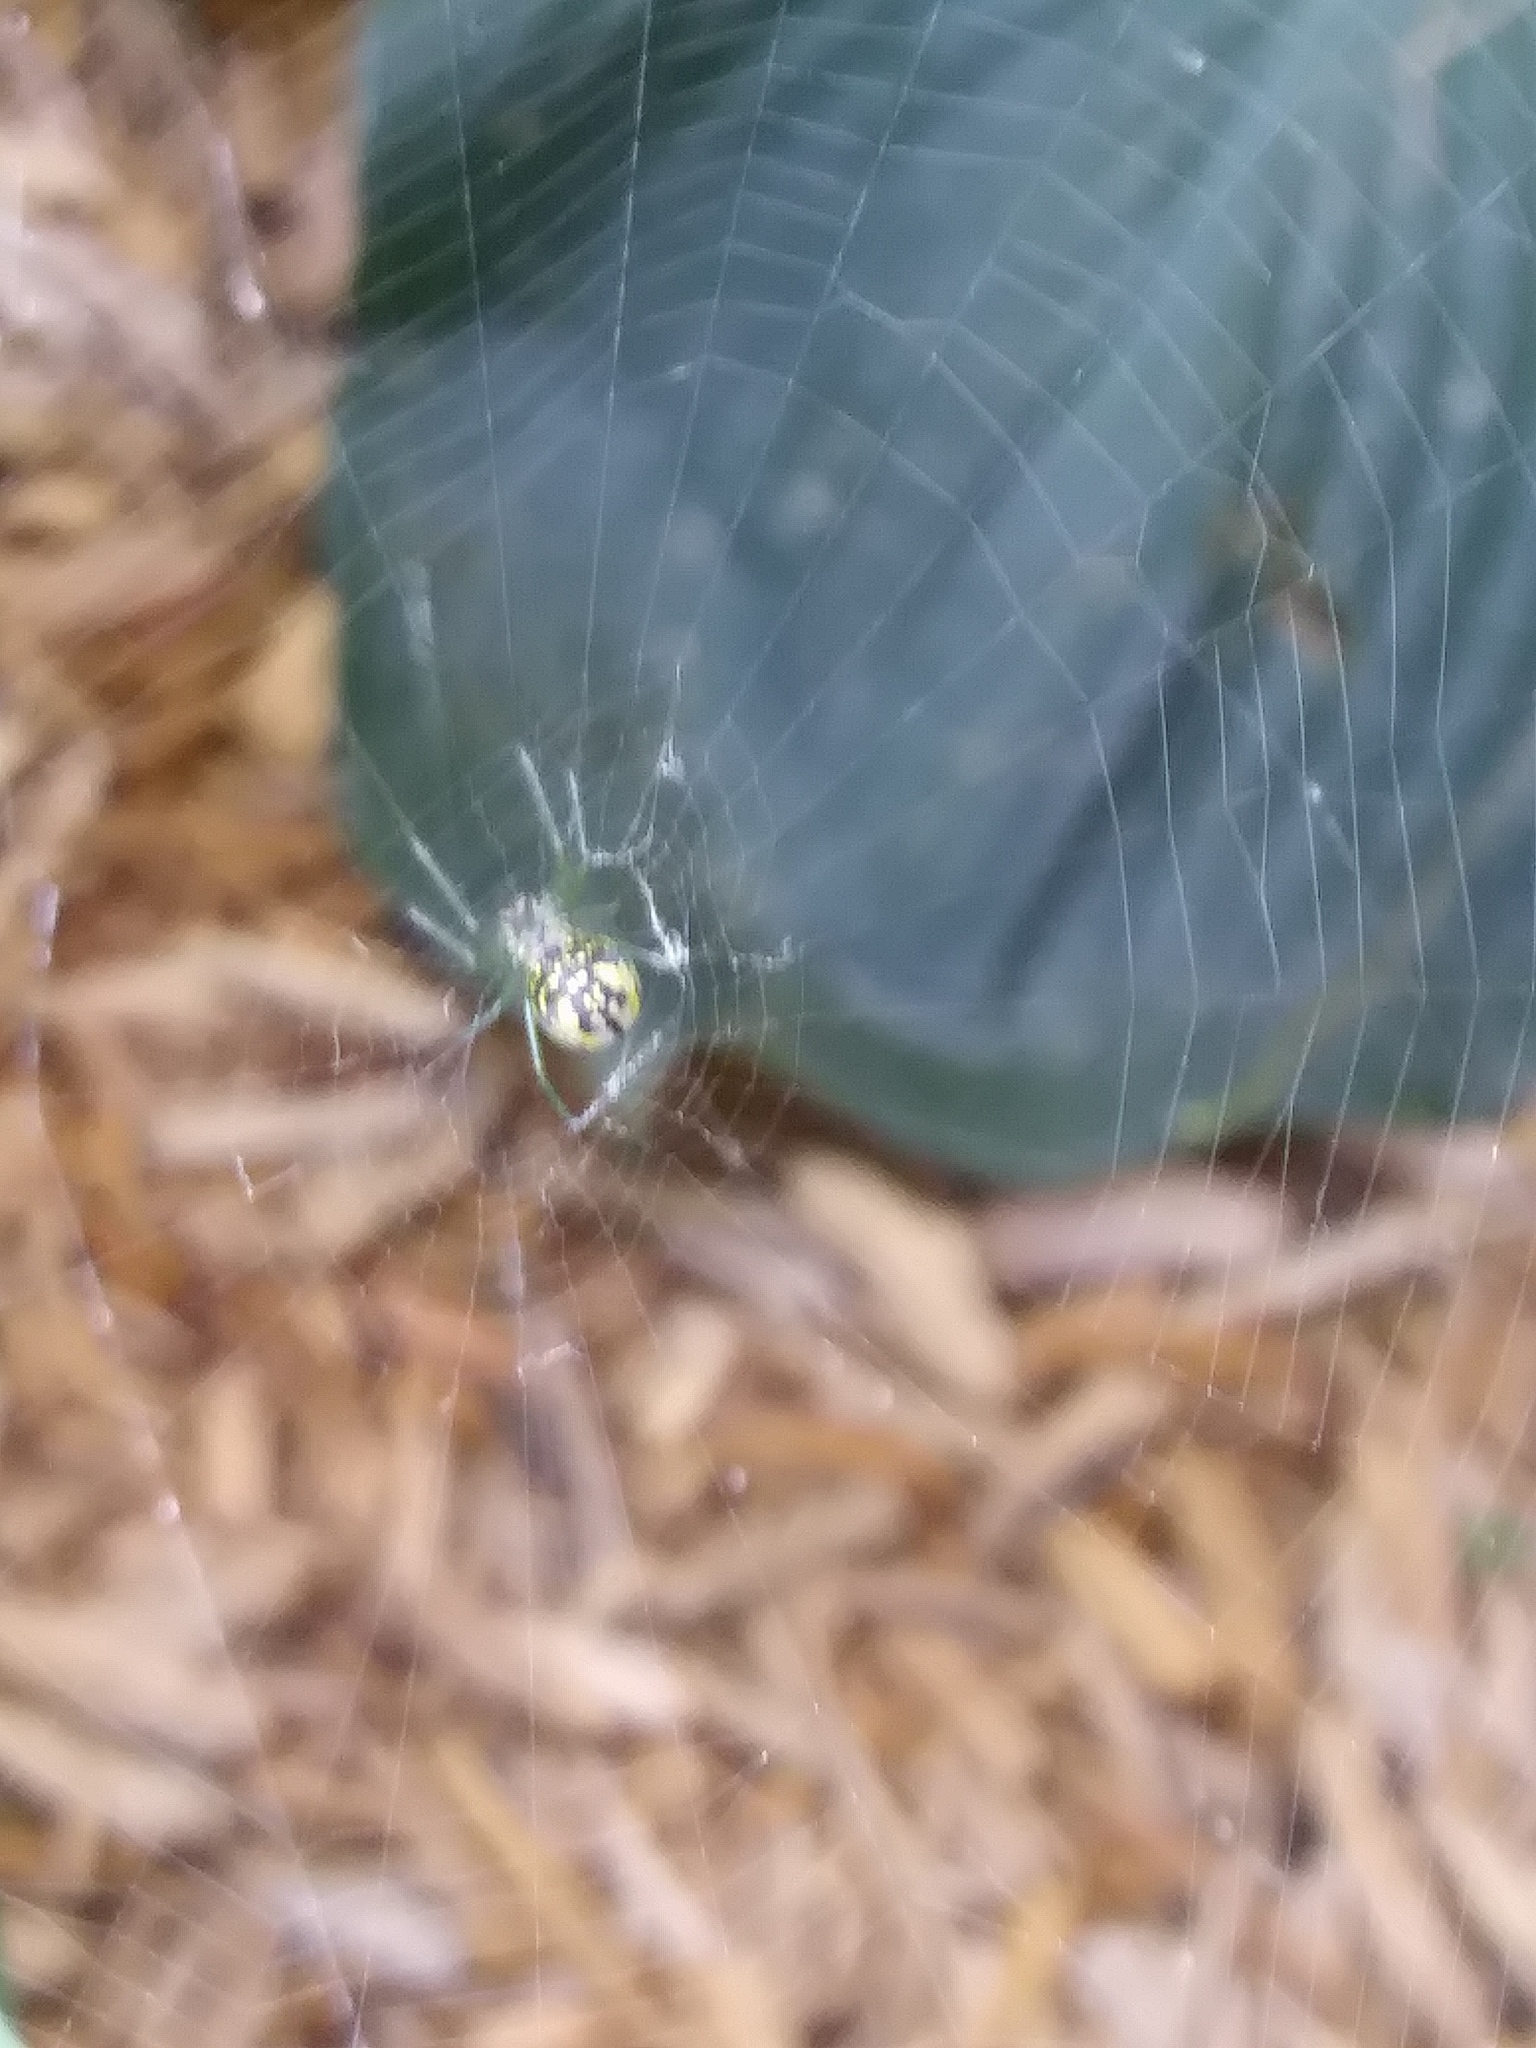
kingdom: Animalia
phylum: Arthropoda
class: Arachnida
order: Araneae
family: Tetragnathidae
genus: Leucauge
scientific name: Leucauge venusta
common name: Longjawed orb weavers
